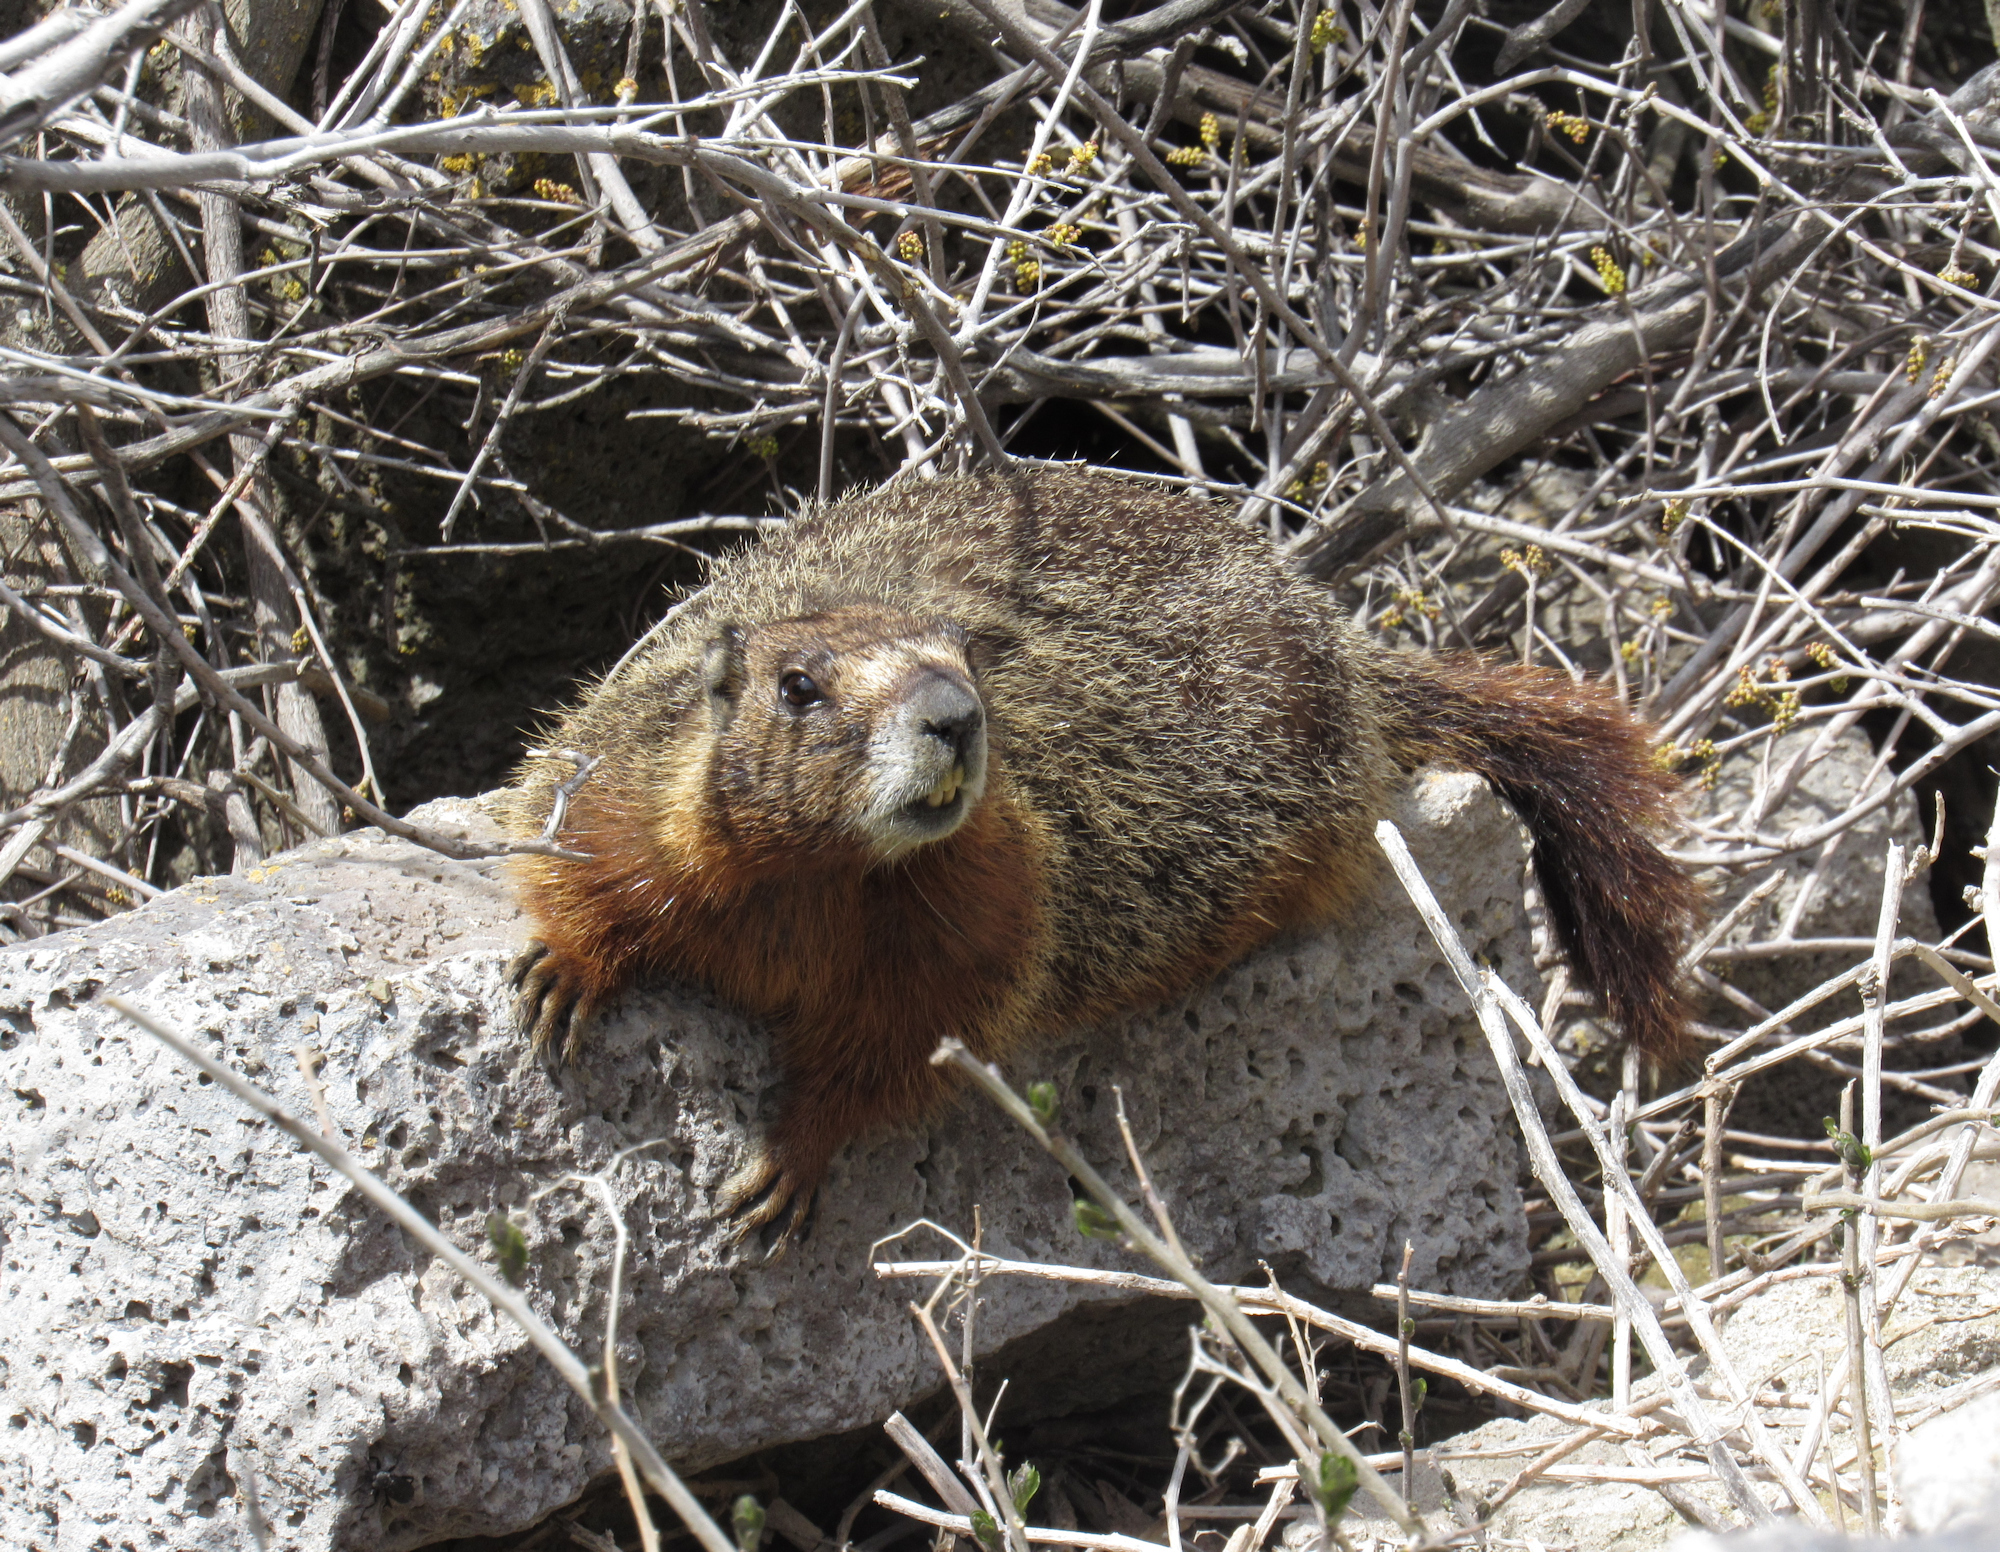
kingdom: Animalia
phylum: Chordata
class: Mammalia
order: Rodentia
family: Sciuridae
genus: Marmota
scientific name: Marmota flaviventris
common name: Yellow-bellied marmot
